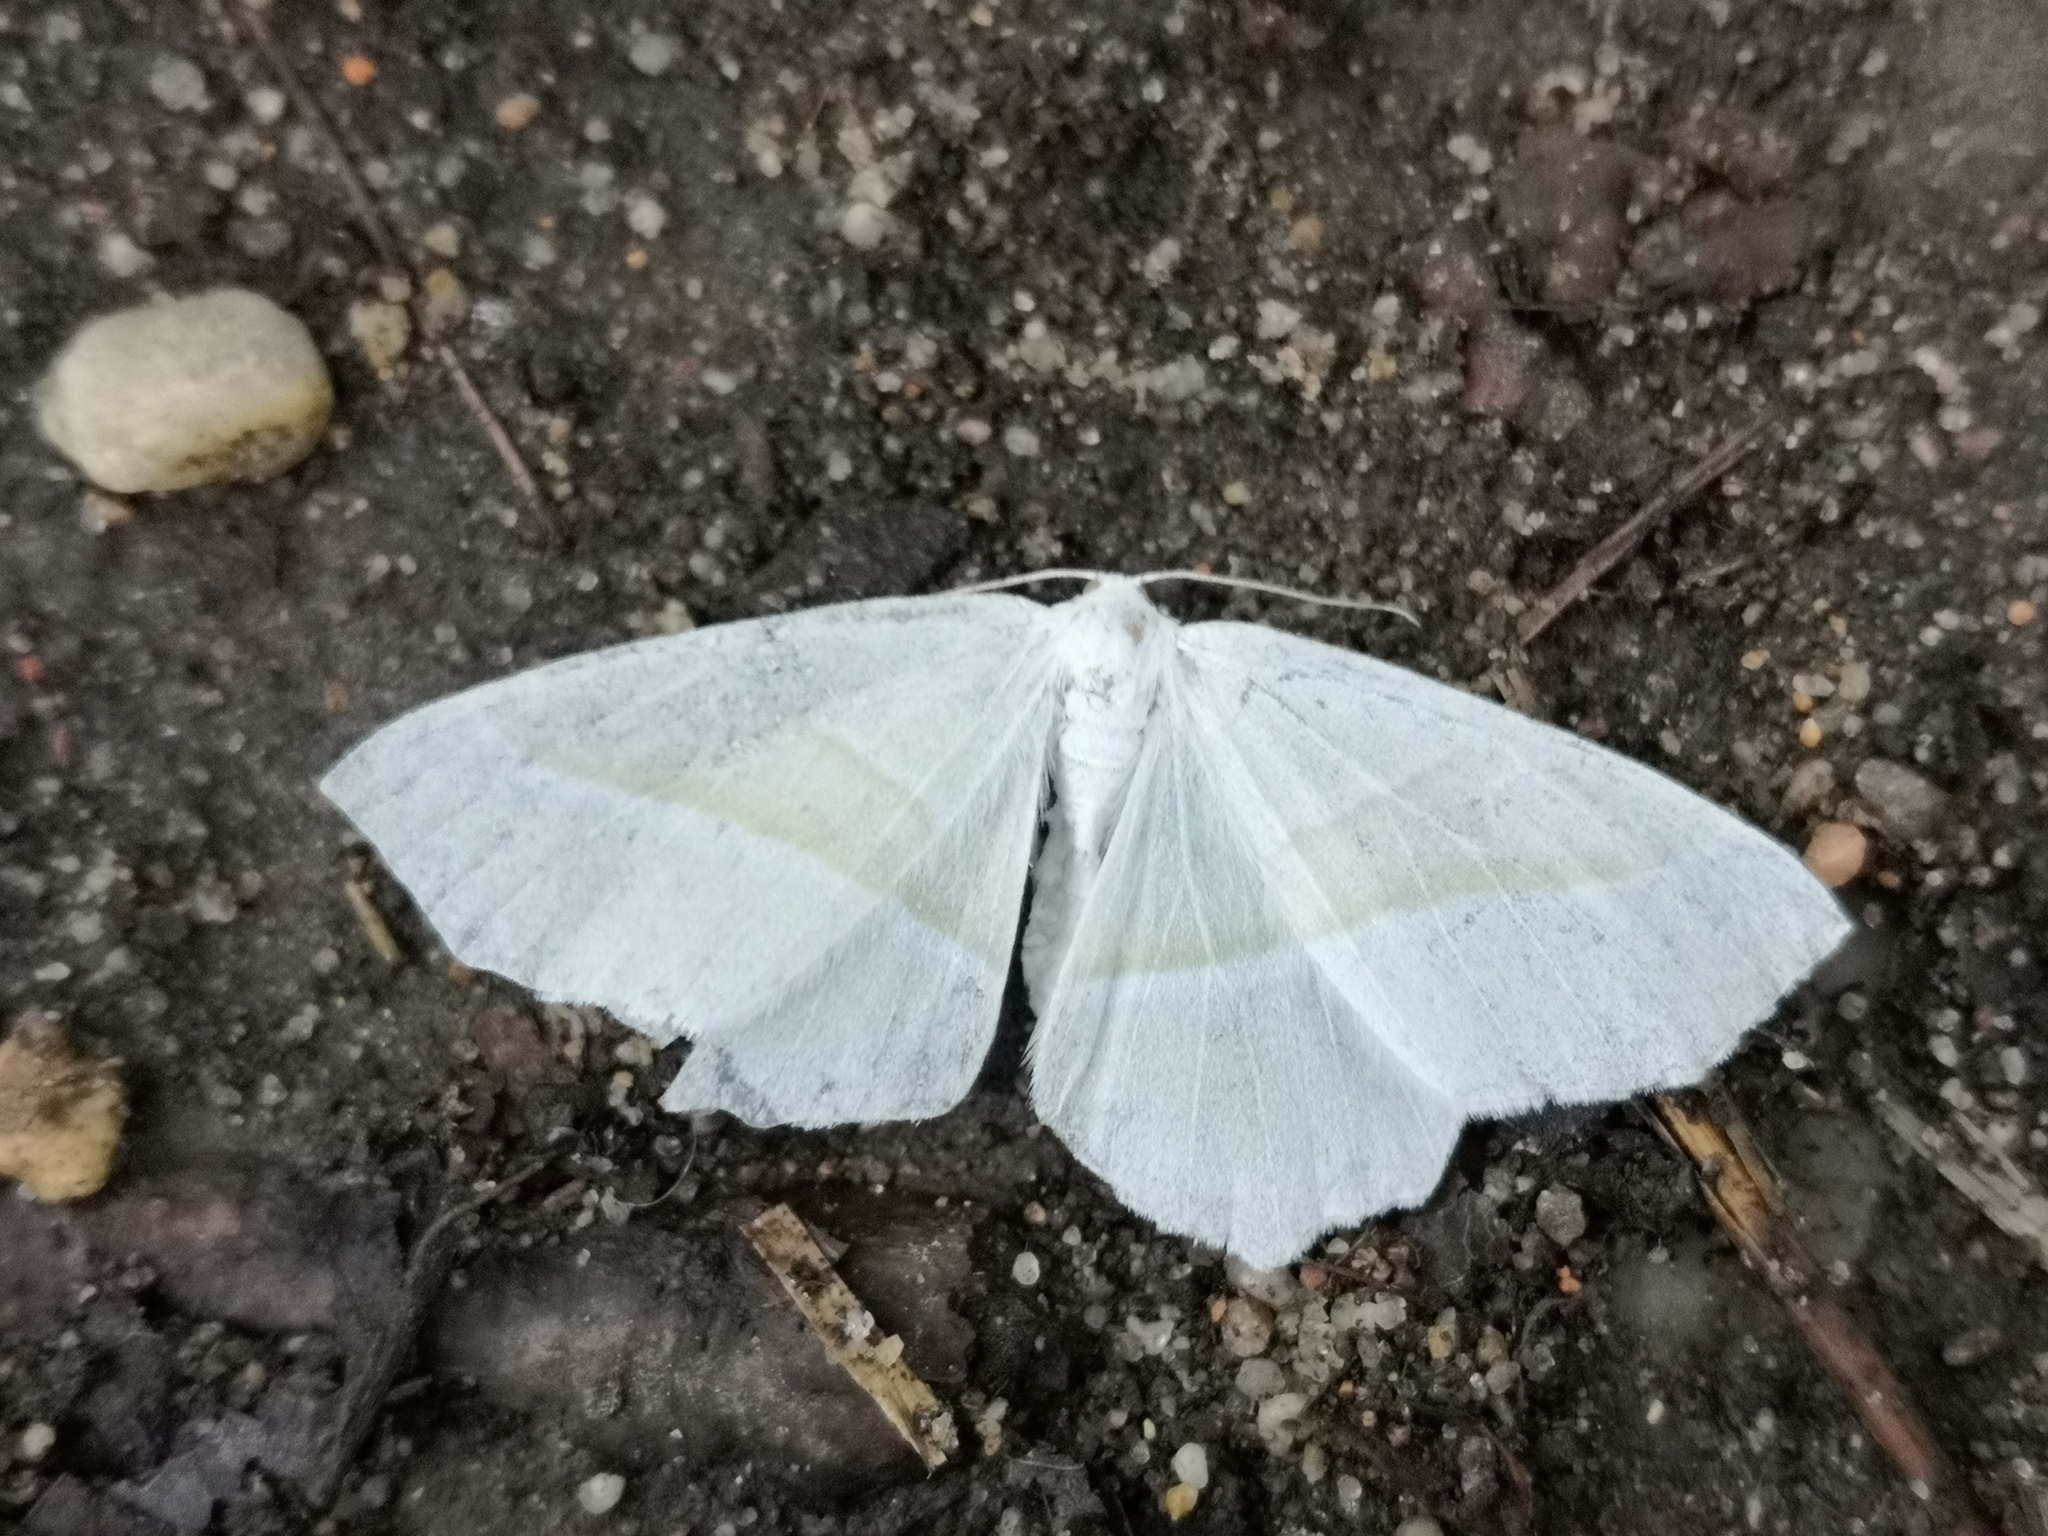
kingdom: Animalia
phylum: Arthropoda
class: Insecta
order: Lepidoptera
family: Geometridae
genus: Campaea
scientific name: Campaea margaritaria
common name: Light emerald
